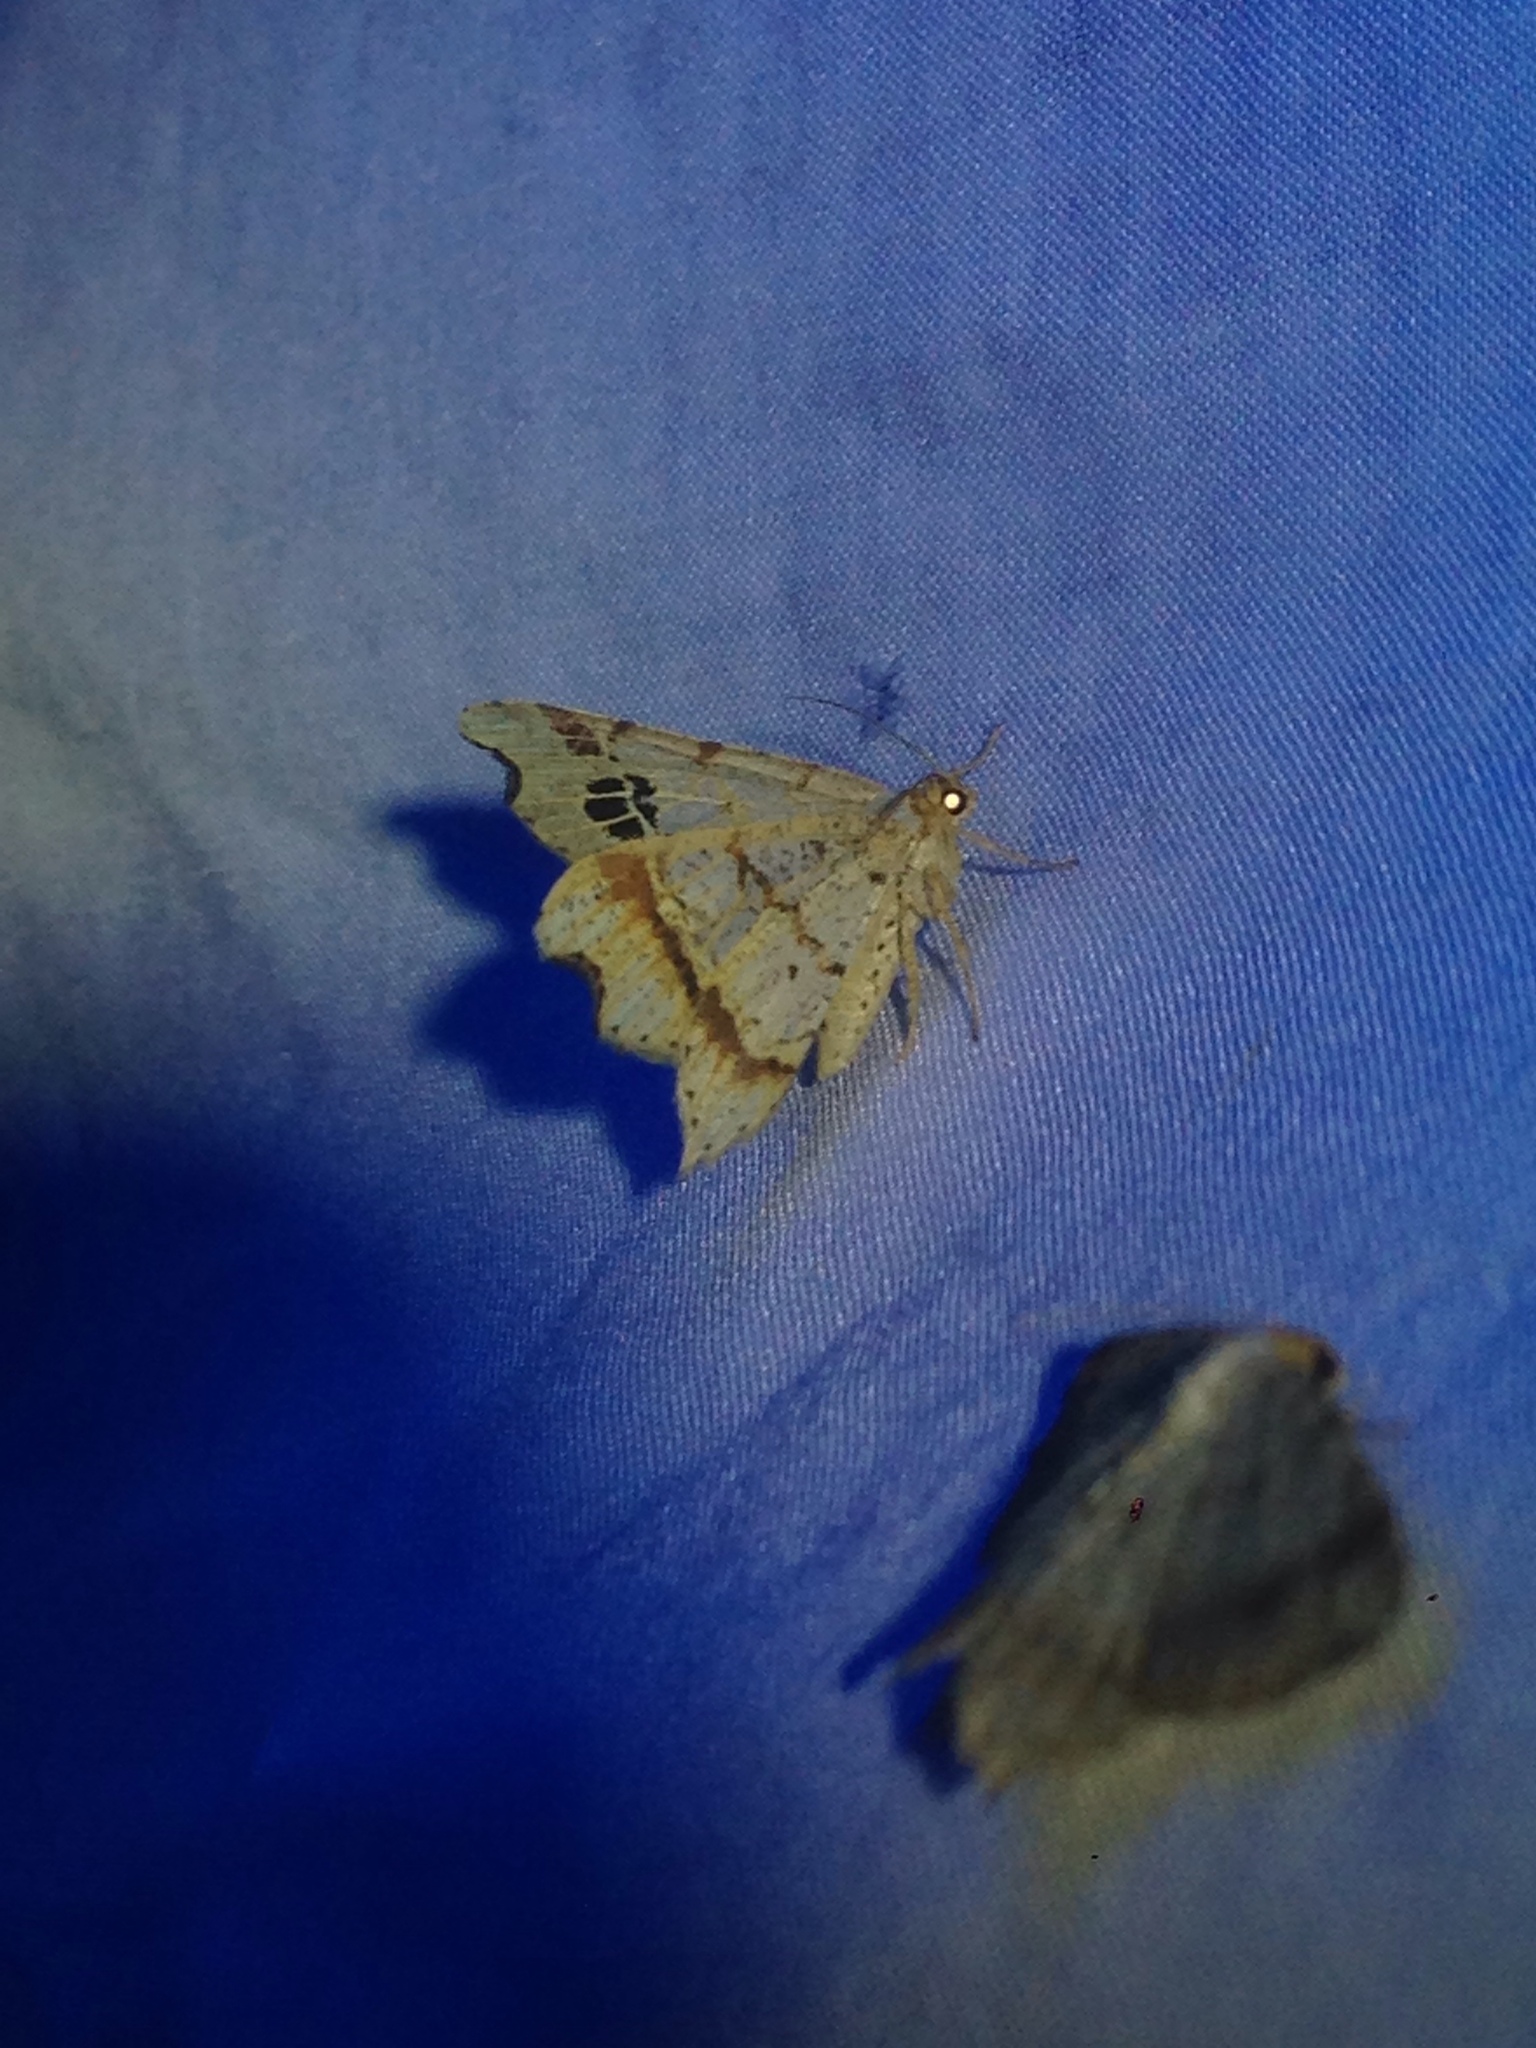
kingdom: Animalia
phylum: Arthropoda
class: Insecta
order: Lepidoptera
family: Geometridae
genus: Macaria
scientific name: Macaria promiscuata
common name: Promiscuous angle
